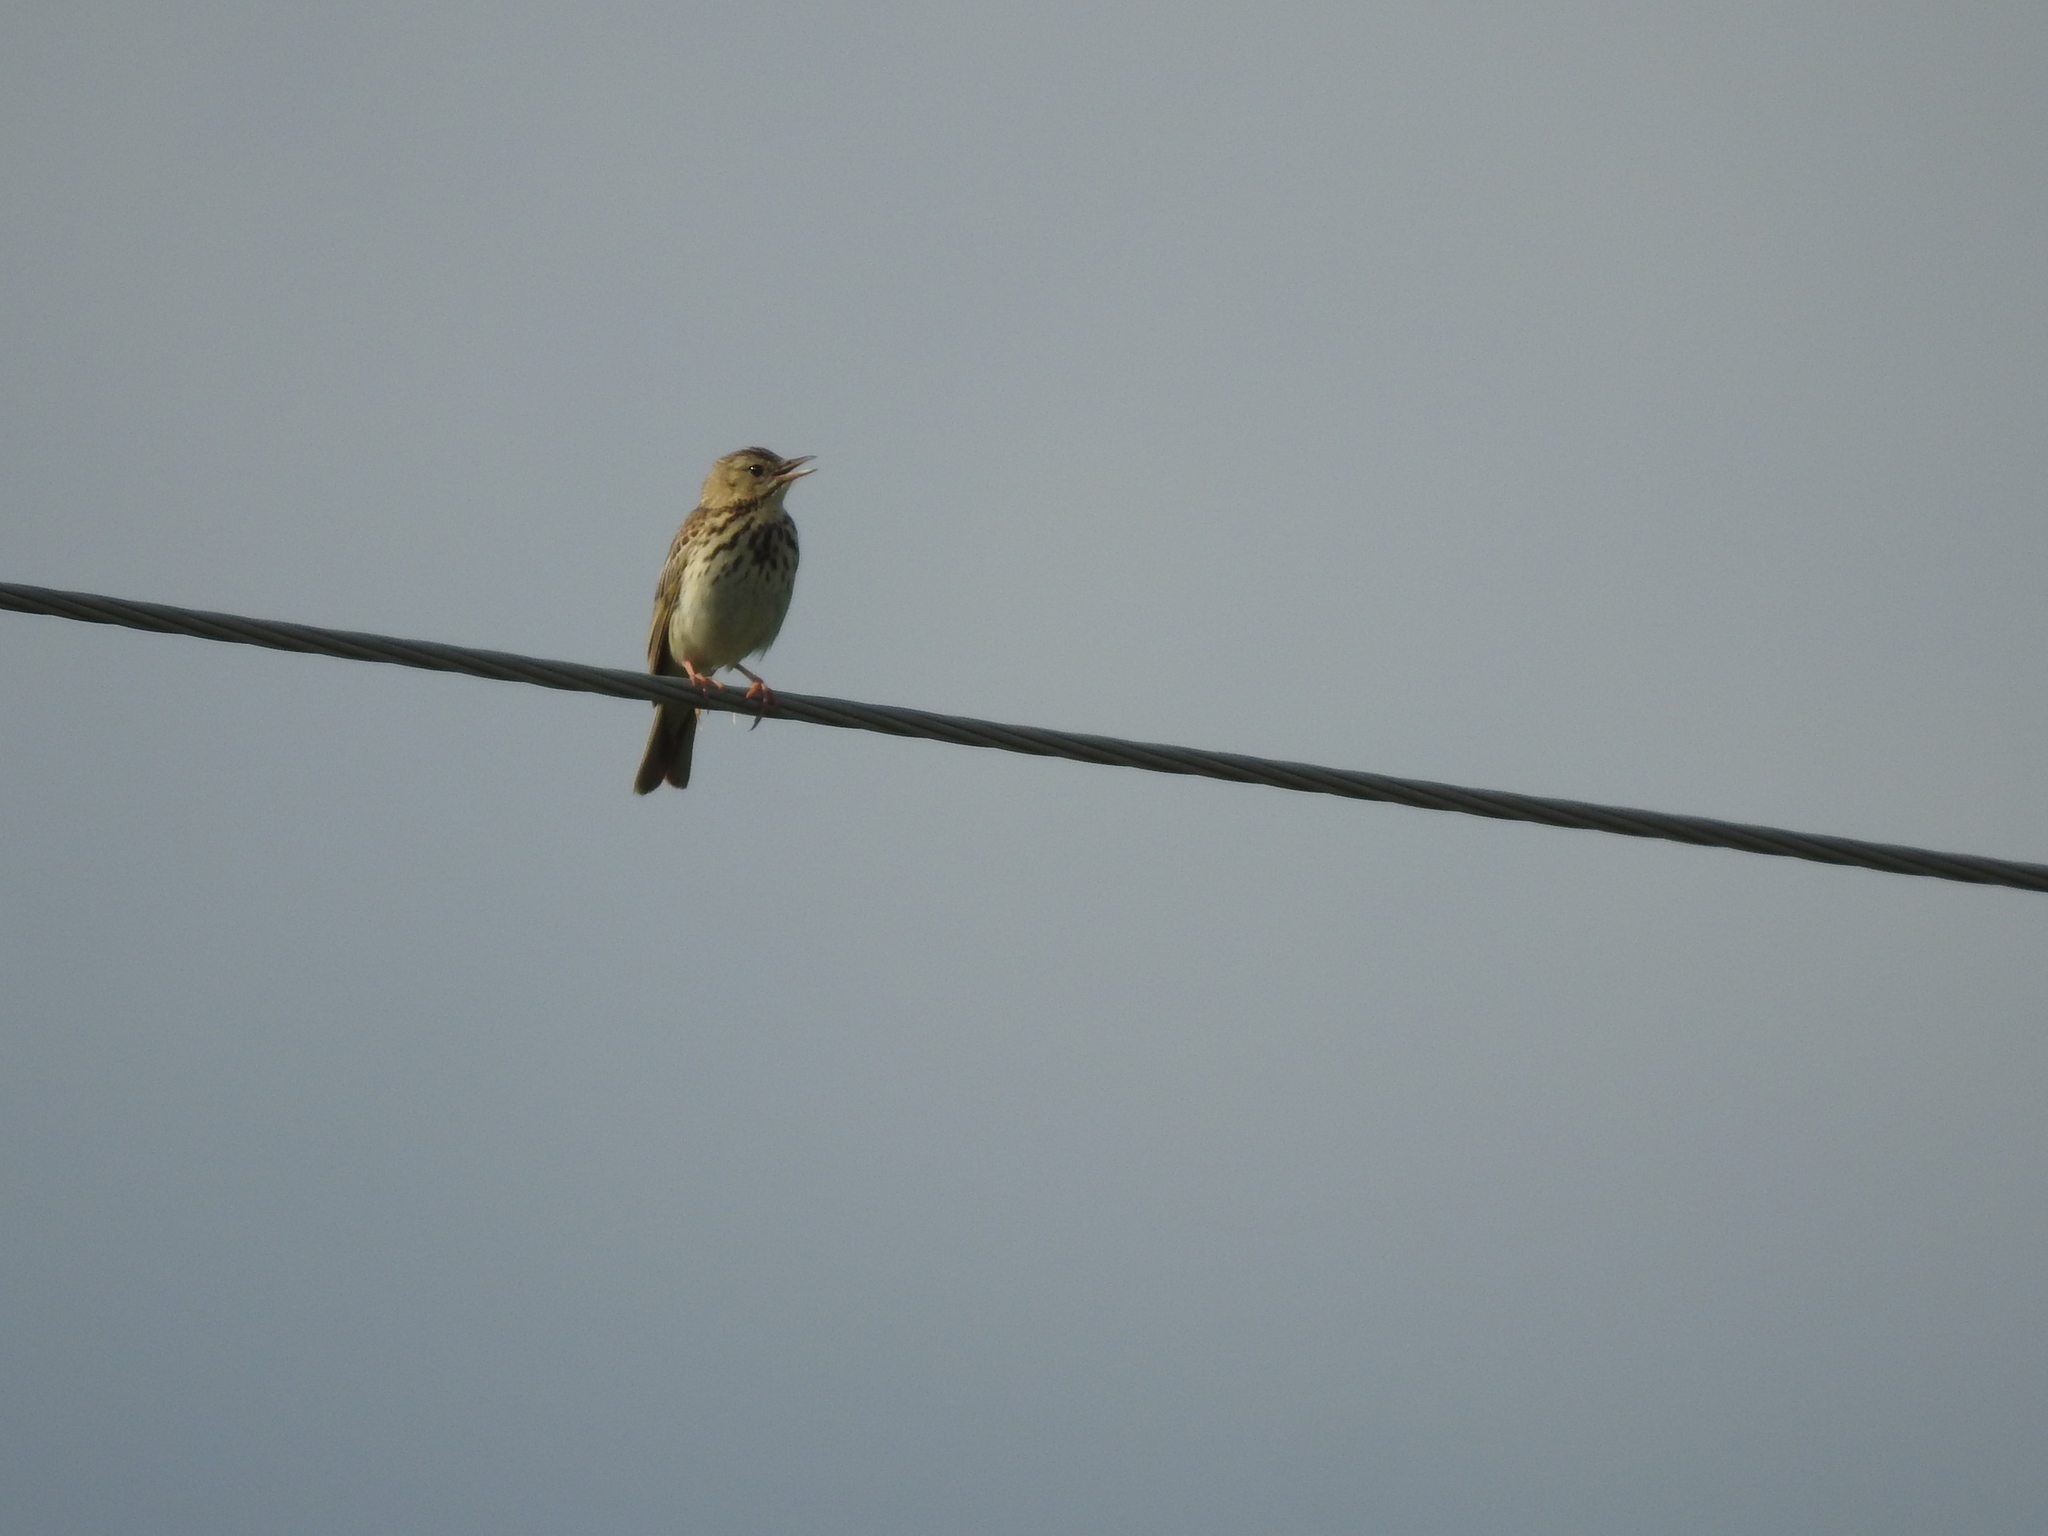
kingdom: Animalia
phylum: Chordata
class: Aves
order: Passeriformes
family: Motacillidae
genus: Anthus
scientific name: Anthus trivialis
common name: Tree pipit
